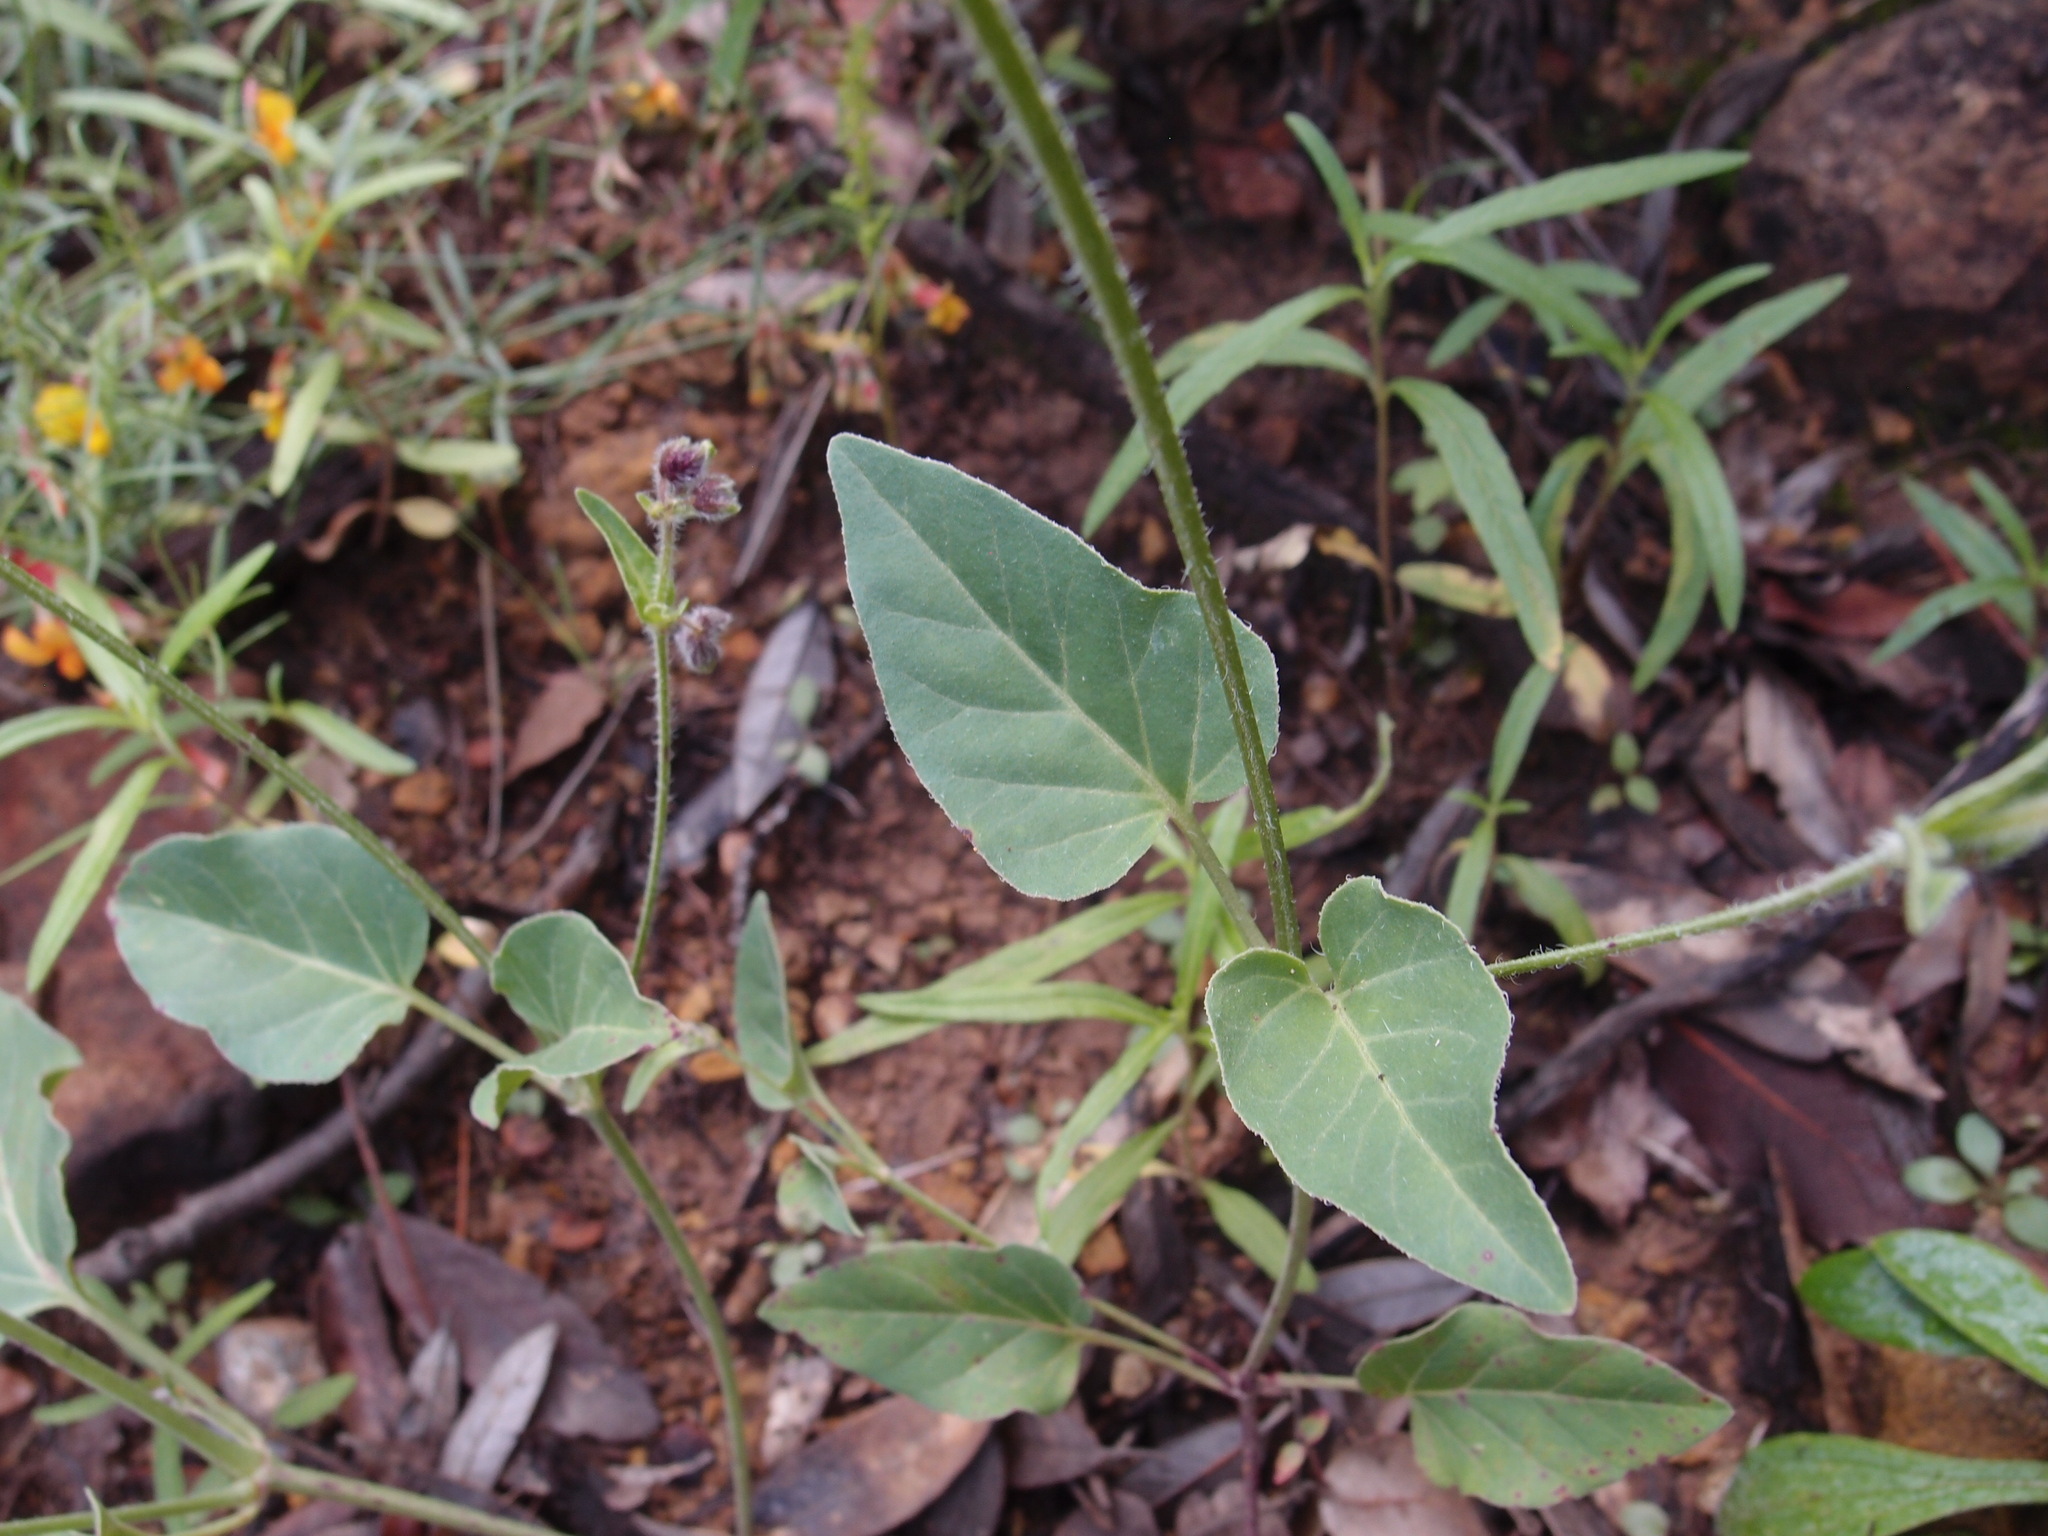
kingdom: Plantae
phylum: Tracheophyta
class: Magnoliopsida
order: Caryophyllales
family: Nyctaginaceae
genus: Mirabilis
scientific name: Mirabilis melanotricha
